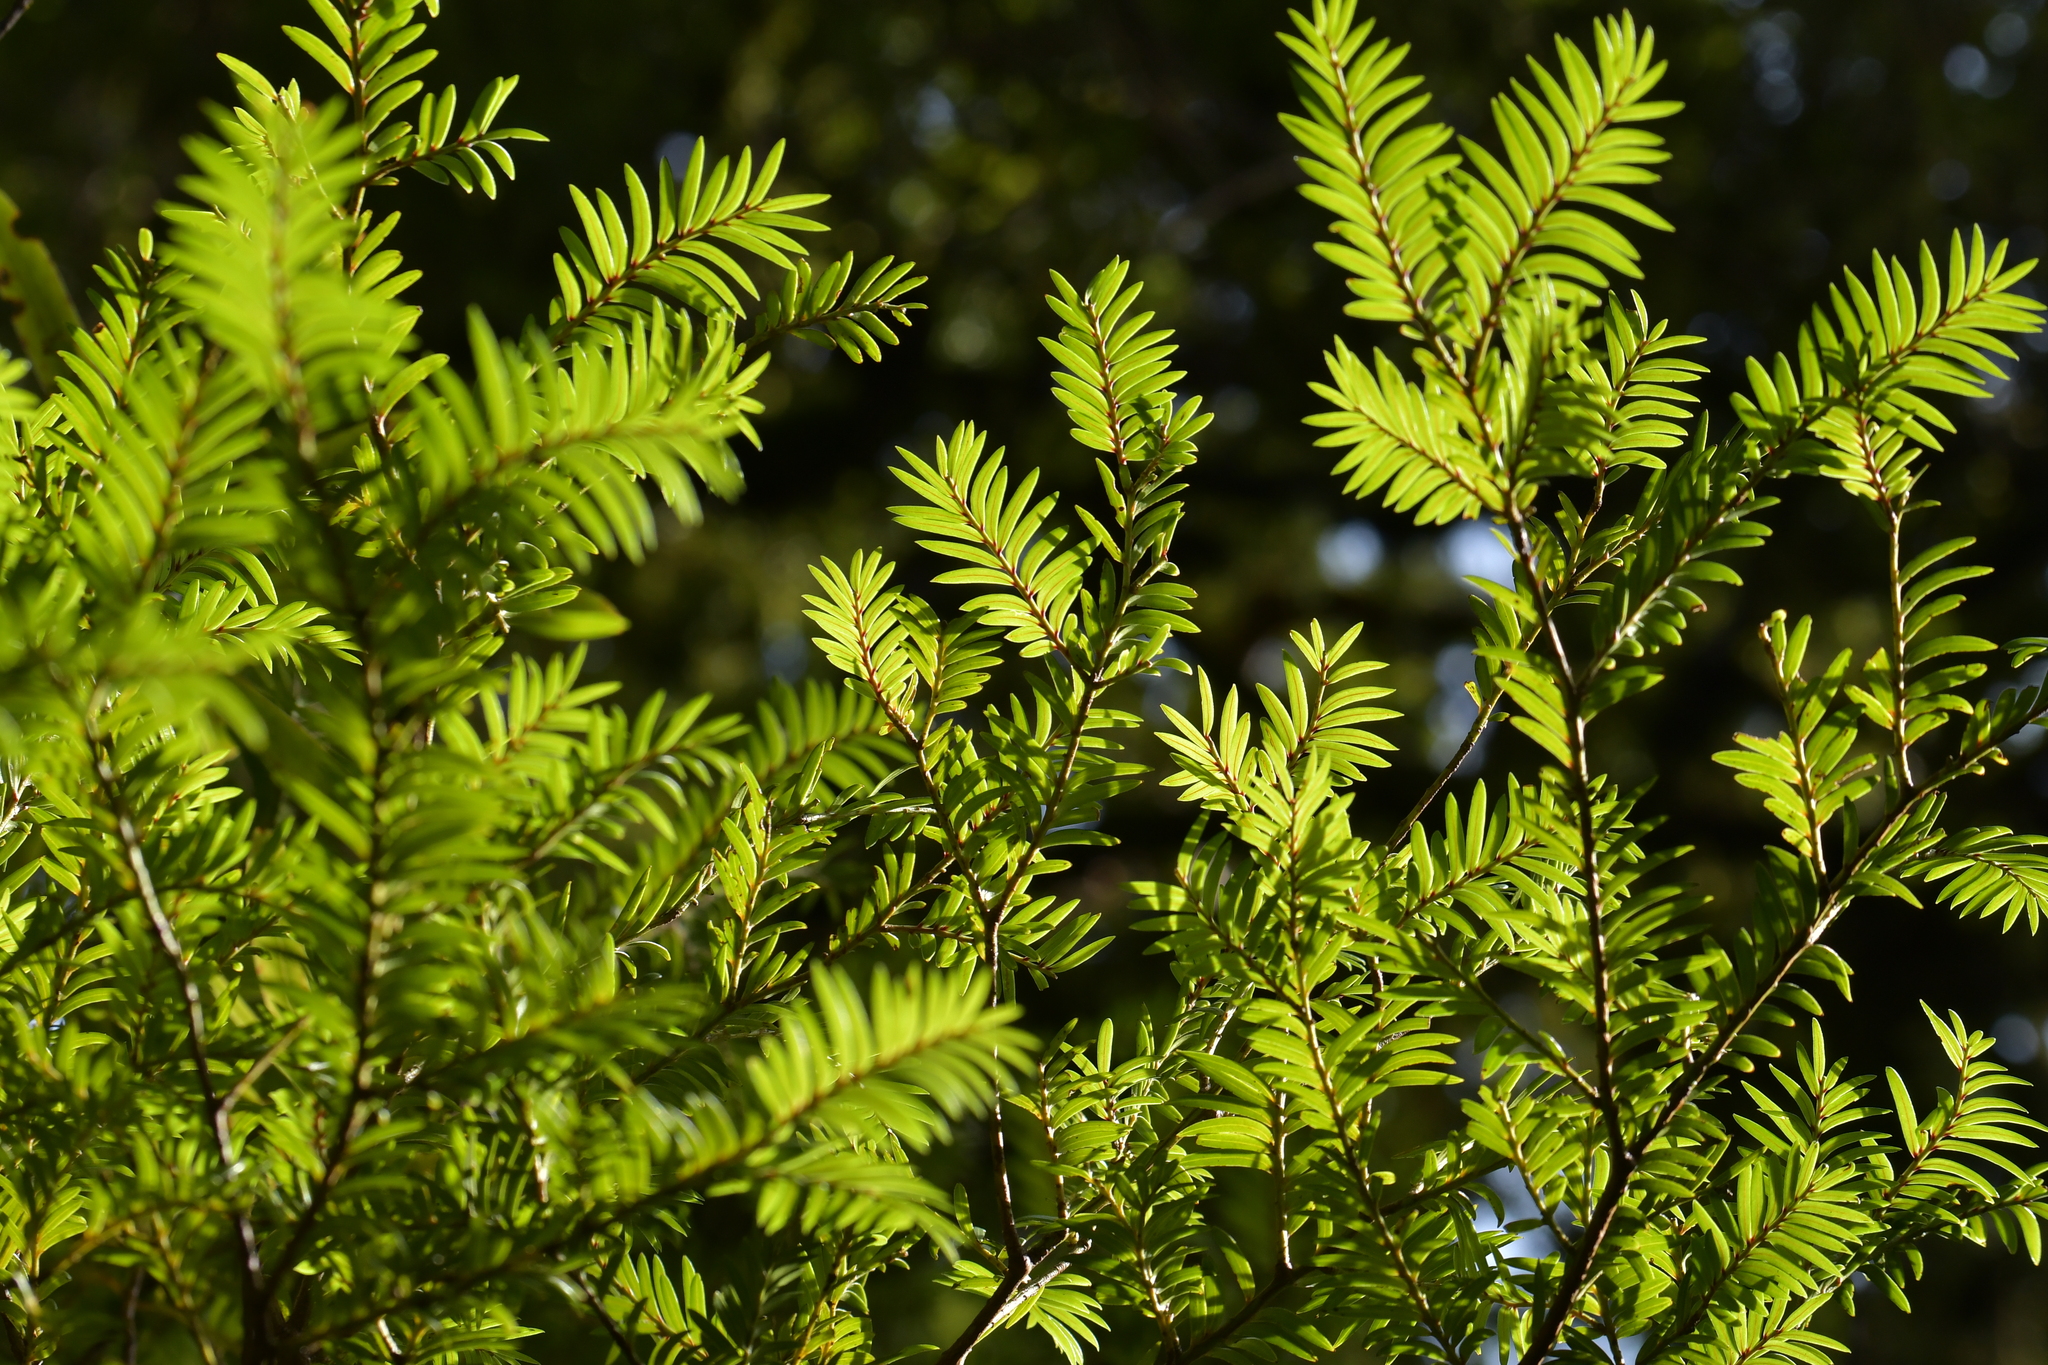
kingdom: Plantae
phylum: Tracheophyta
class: Pinopsida
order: Pinales
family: Podocarpaceae
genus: Prumnopitys
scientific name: Prumnopitys ferruginea
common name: Brown pine
